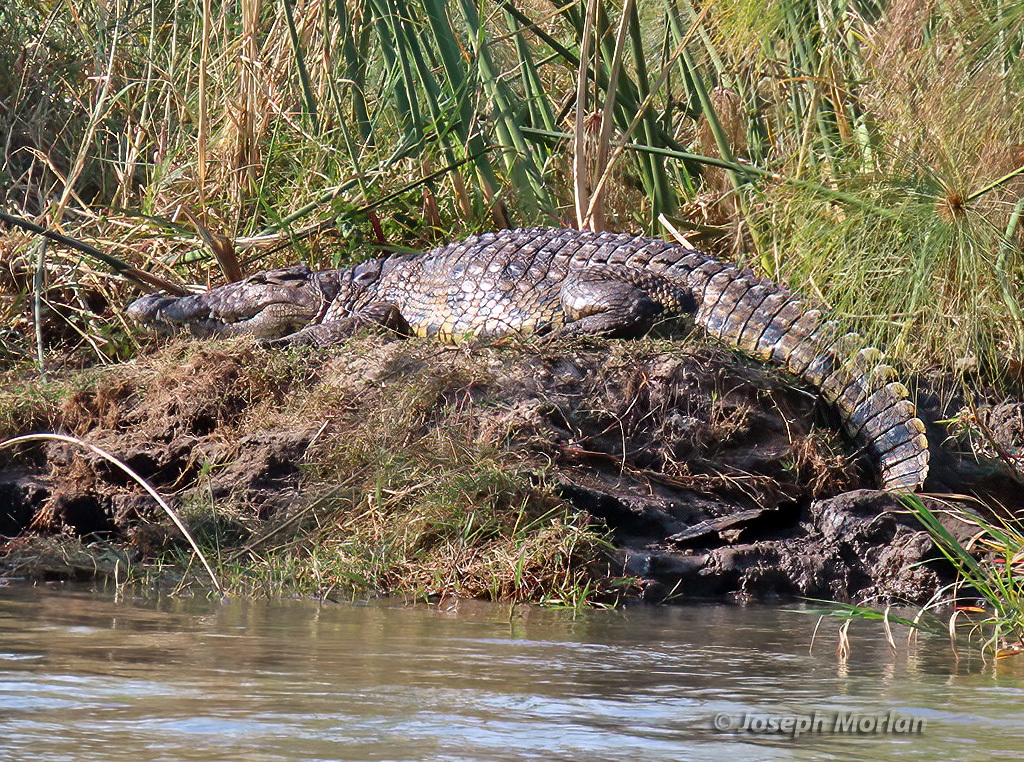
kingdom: Animalia
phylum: Chordata
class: Crocodylia
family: Crocodylidae
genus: Crocodylus
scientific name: Crocodylus niloticus
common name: Nile crocodile
